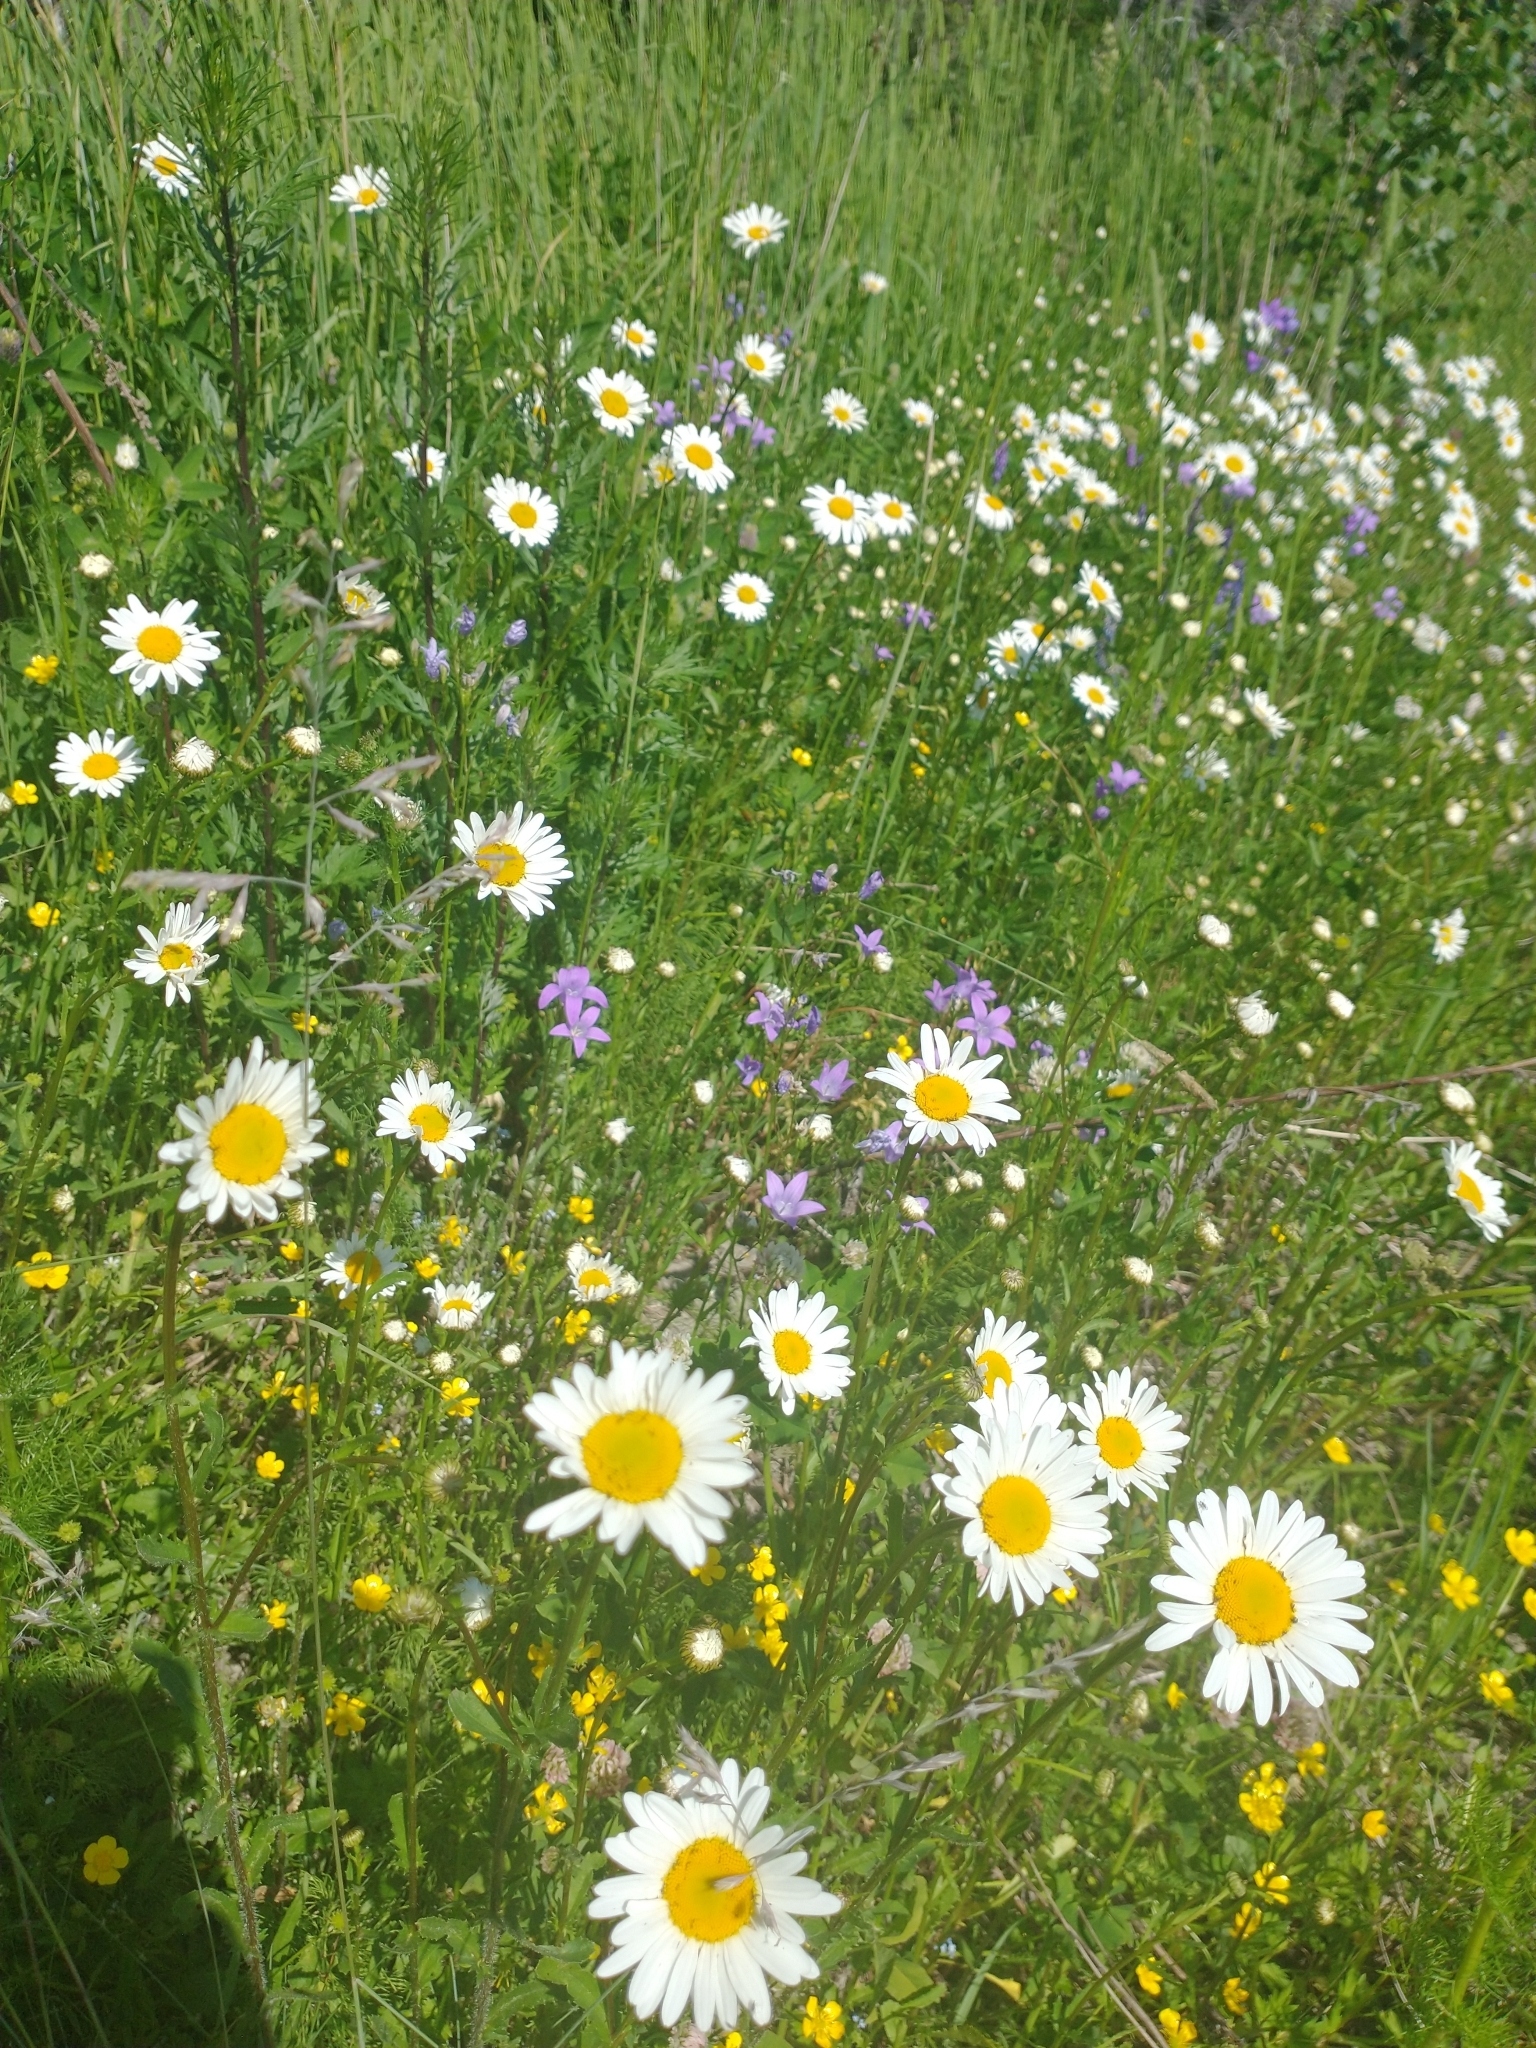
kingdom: Plantae
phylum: Tracheophyta
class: Magnoliopsida
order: Asterales
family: Asteraceae
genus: Leucanthemum
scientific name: Leucanthemum vulgare
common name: Oxeye daisy
